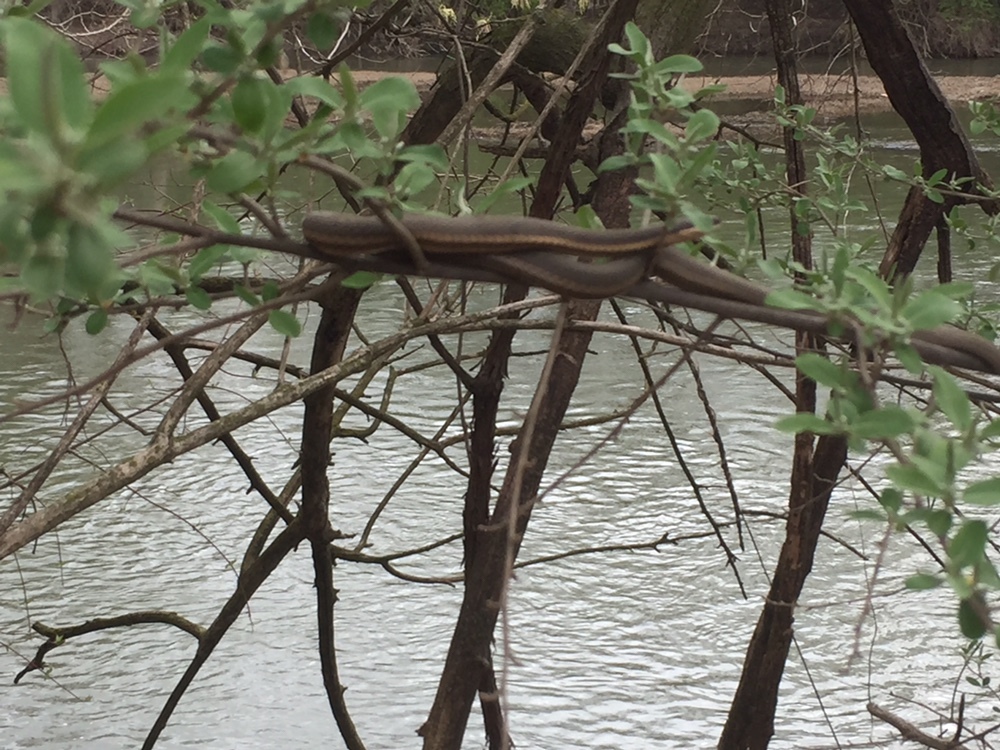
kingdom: Animalia
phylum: Chordata
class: Squamata
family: Colubridae
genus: Regina
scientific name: Regina septemvittata
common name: Queen snake
